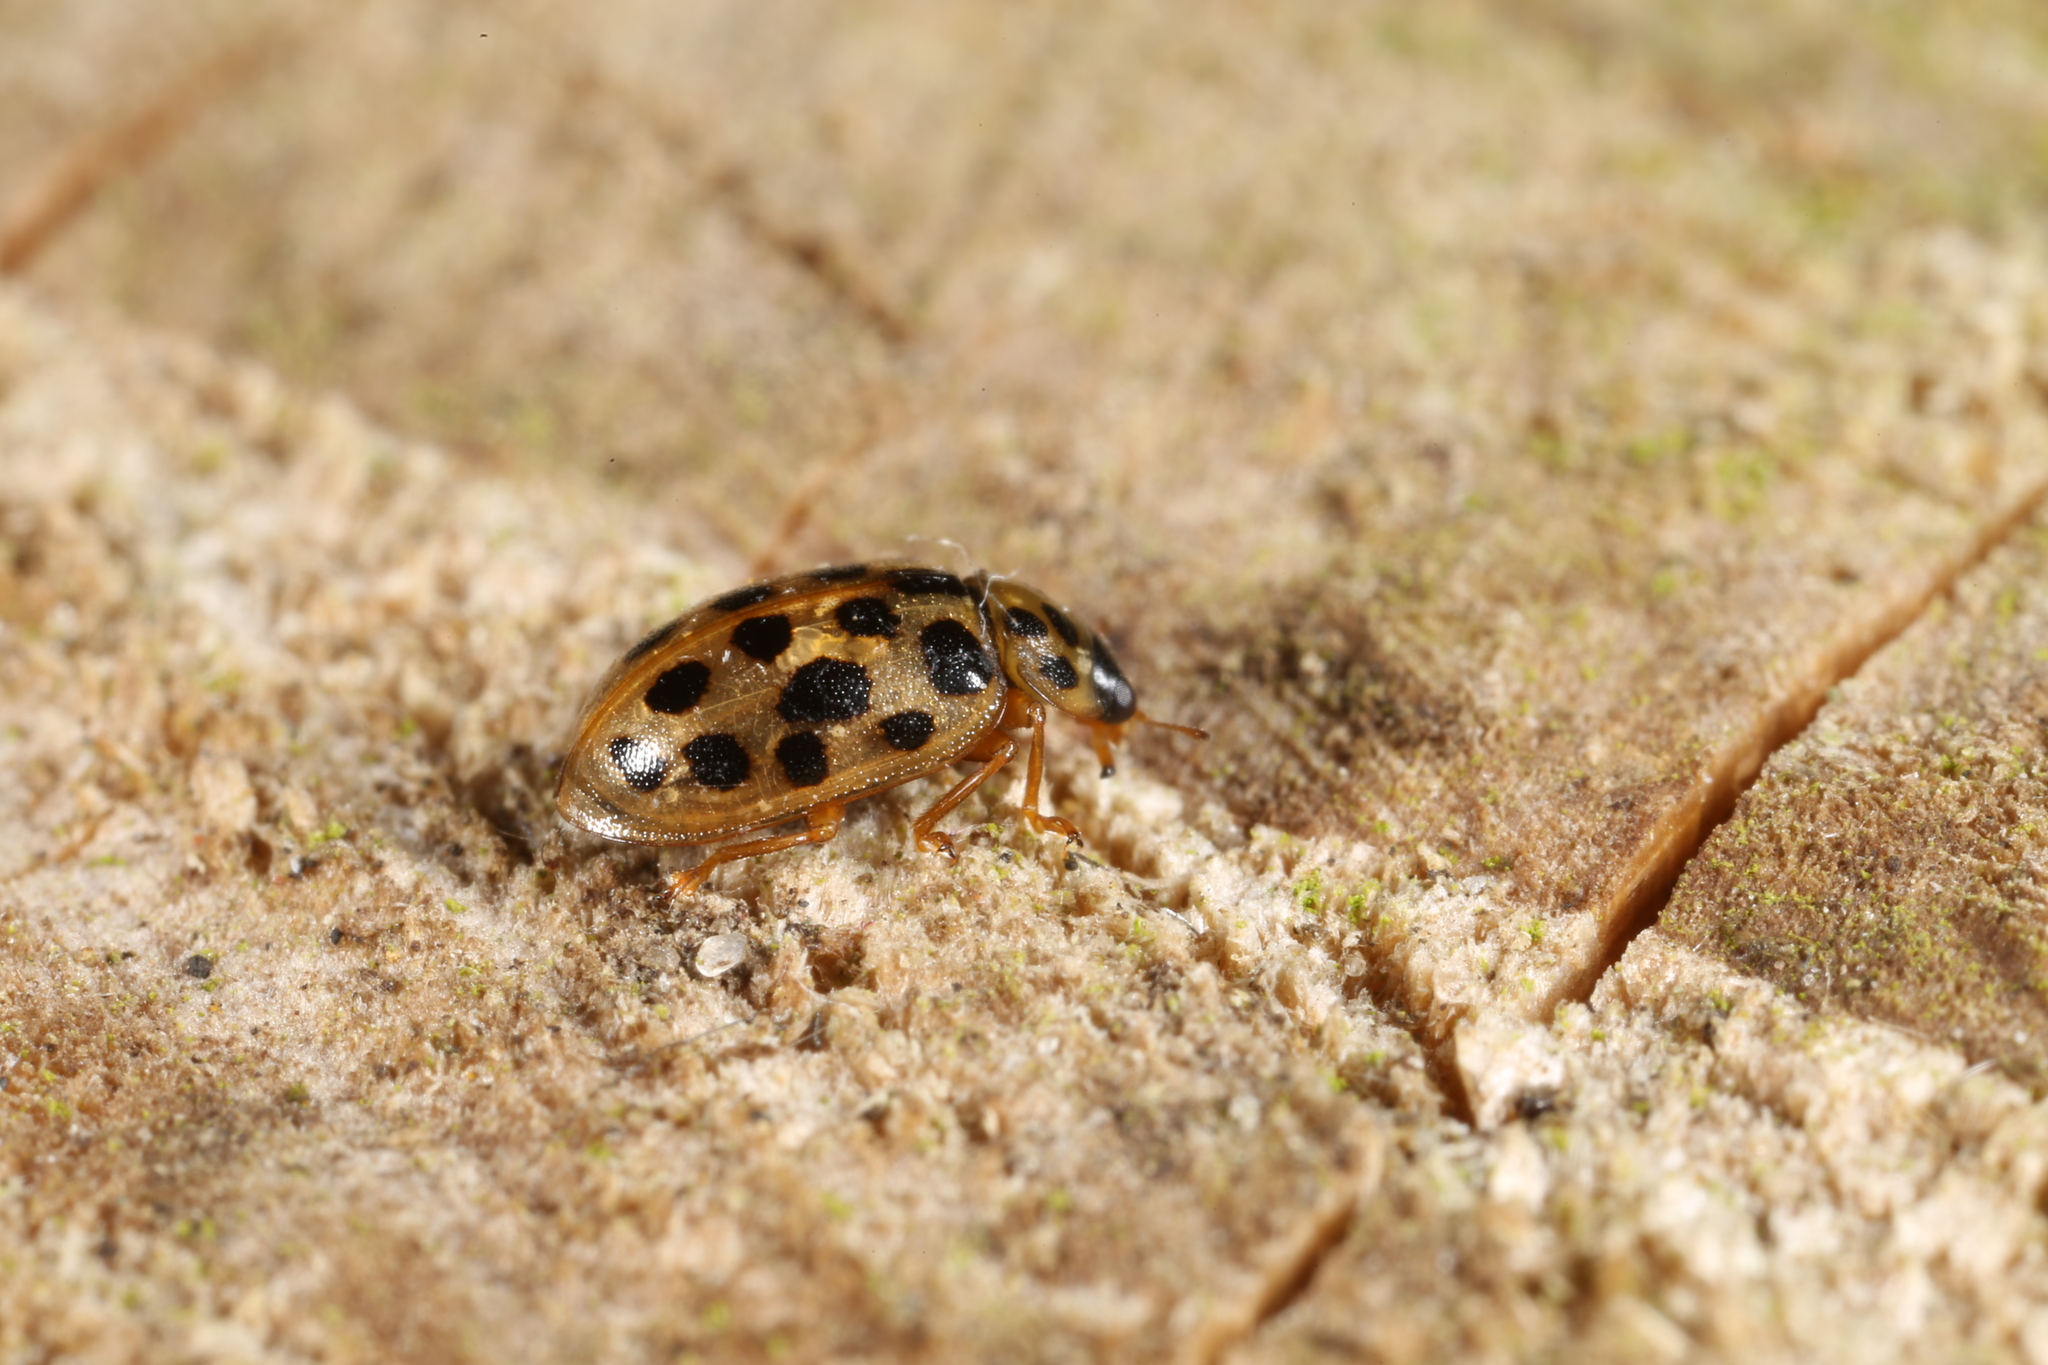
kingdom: Animalia
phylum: Arthropoda
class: Insecta
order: Coleoptera
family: Coccinellidae
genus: Anisosticta
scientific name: Anisosticta novemdecimpunctata
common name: Water ladybird
